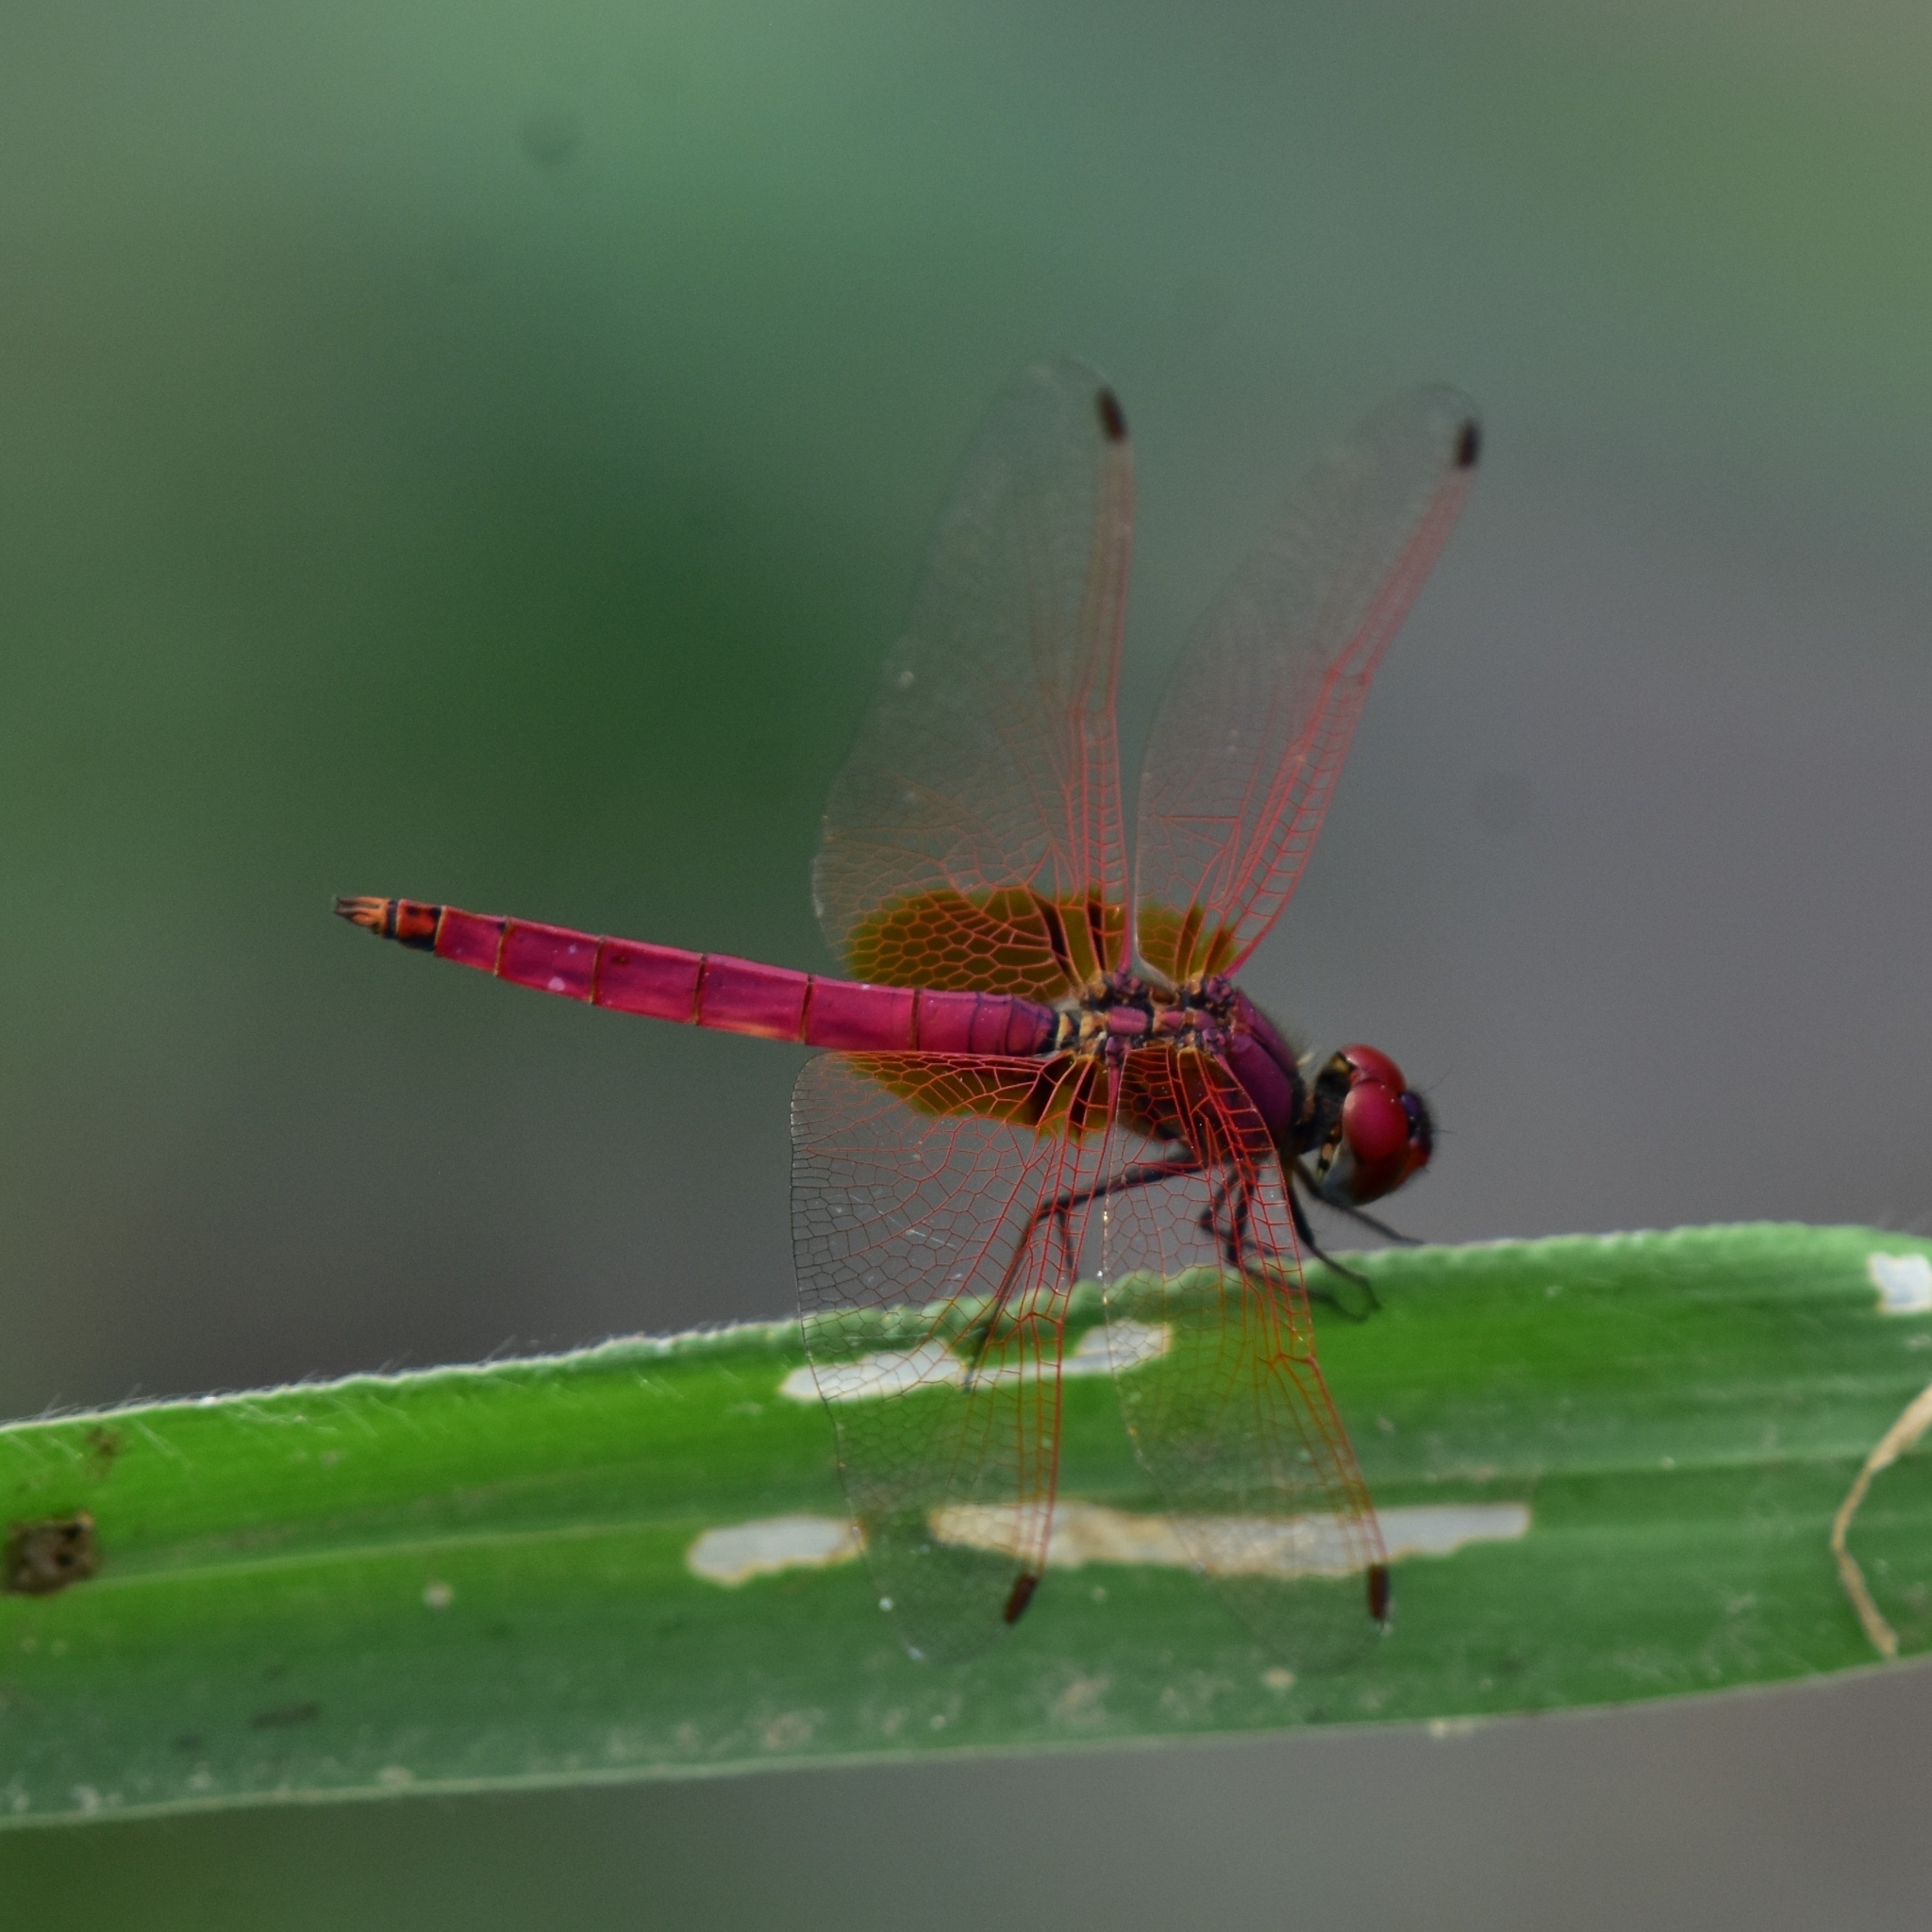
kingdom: Animalia
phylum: Arthropoda
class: Insecta
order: Odonata
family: Libellulidae
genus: Trithemis
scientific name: Trithemis aurora
